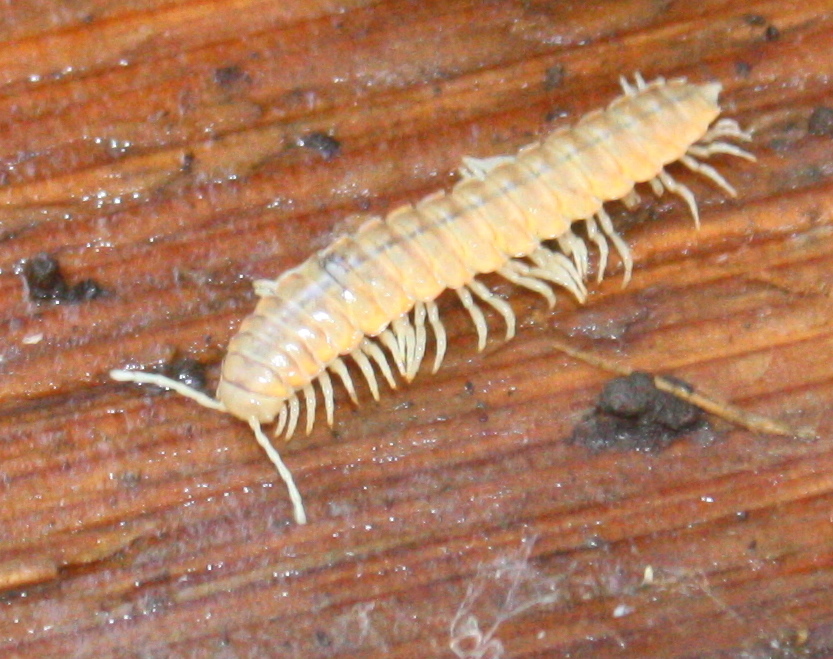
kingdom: Animalia
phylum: Arthropoda
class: Diplopoda
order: Polydesmida
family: Xystodesmidae
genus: Xystocheir
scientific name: Xystocheir dissecta
